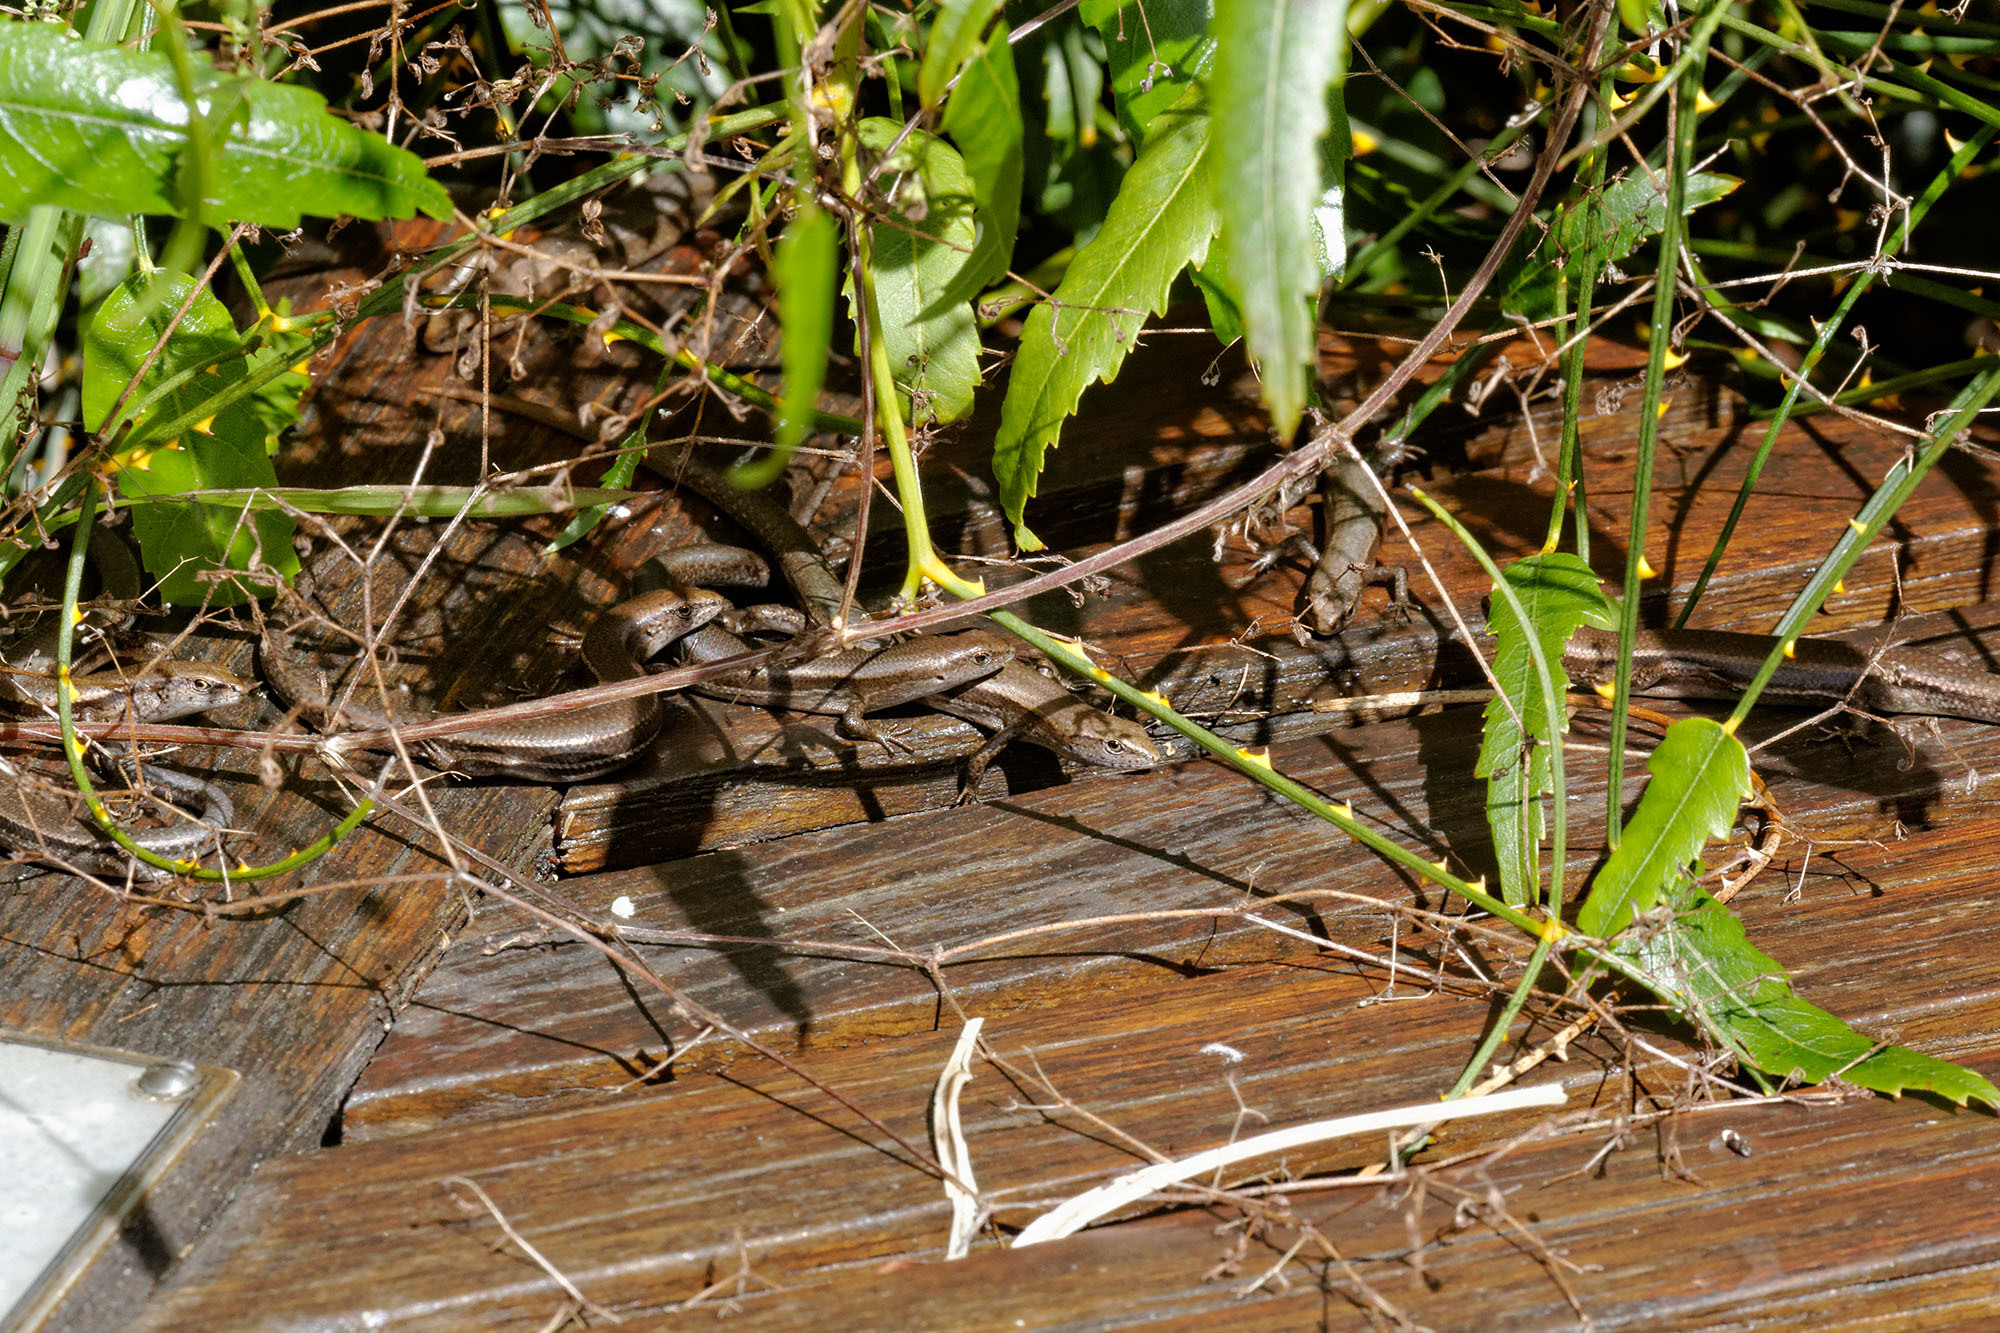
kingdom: Animalia
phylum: Chordata
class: Squamata
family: Scincidae
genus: Lampropholis
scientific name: Lampropholis delicata
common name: Plague skink
